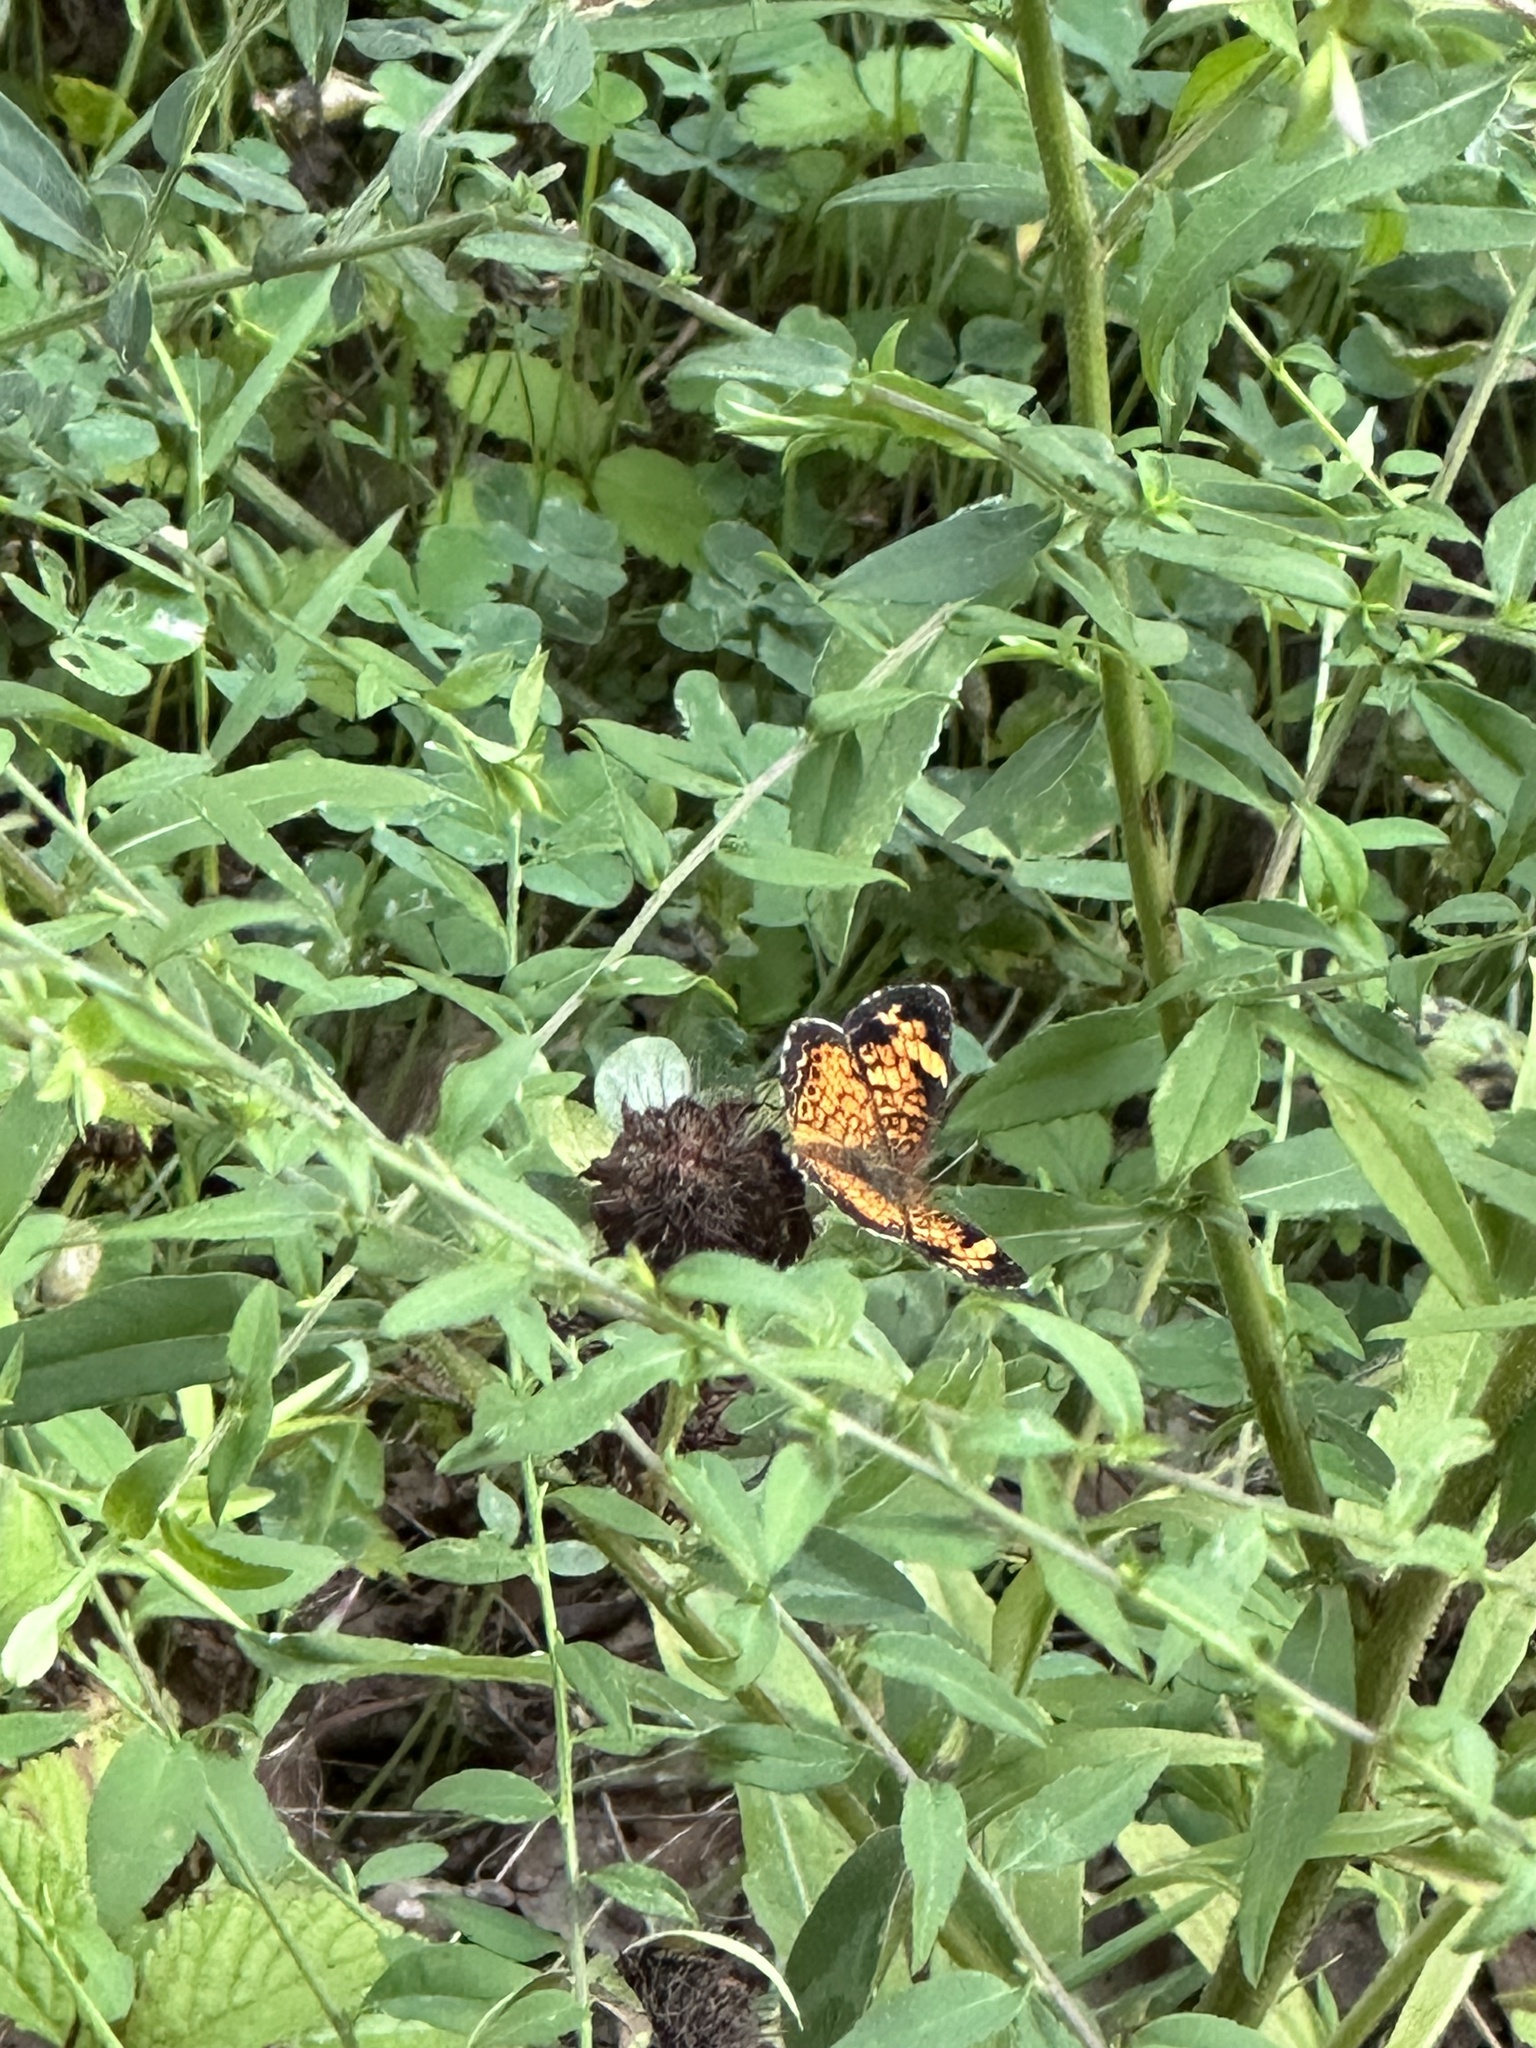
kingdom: Animalia
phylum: Arthropoda
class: Insecta
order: Lepidoptera
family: Nymphalidae
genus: Phyciodes
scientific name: Phyciodes tharos
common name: Pearl crescent
